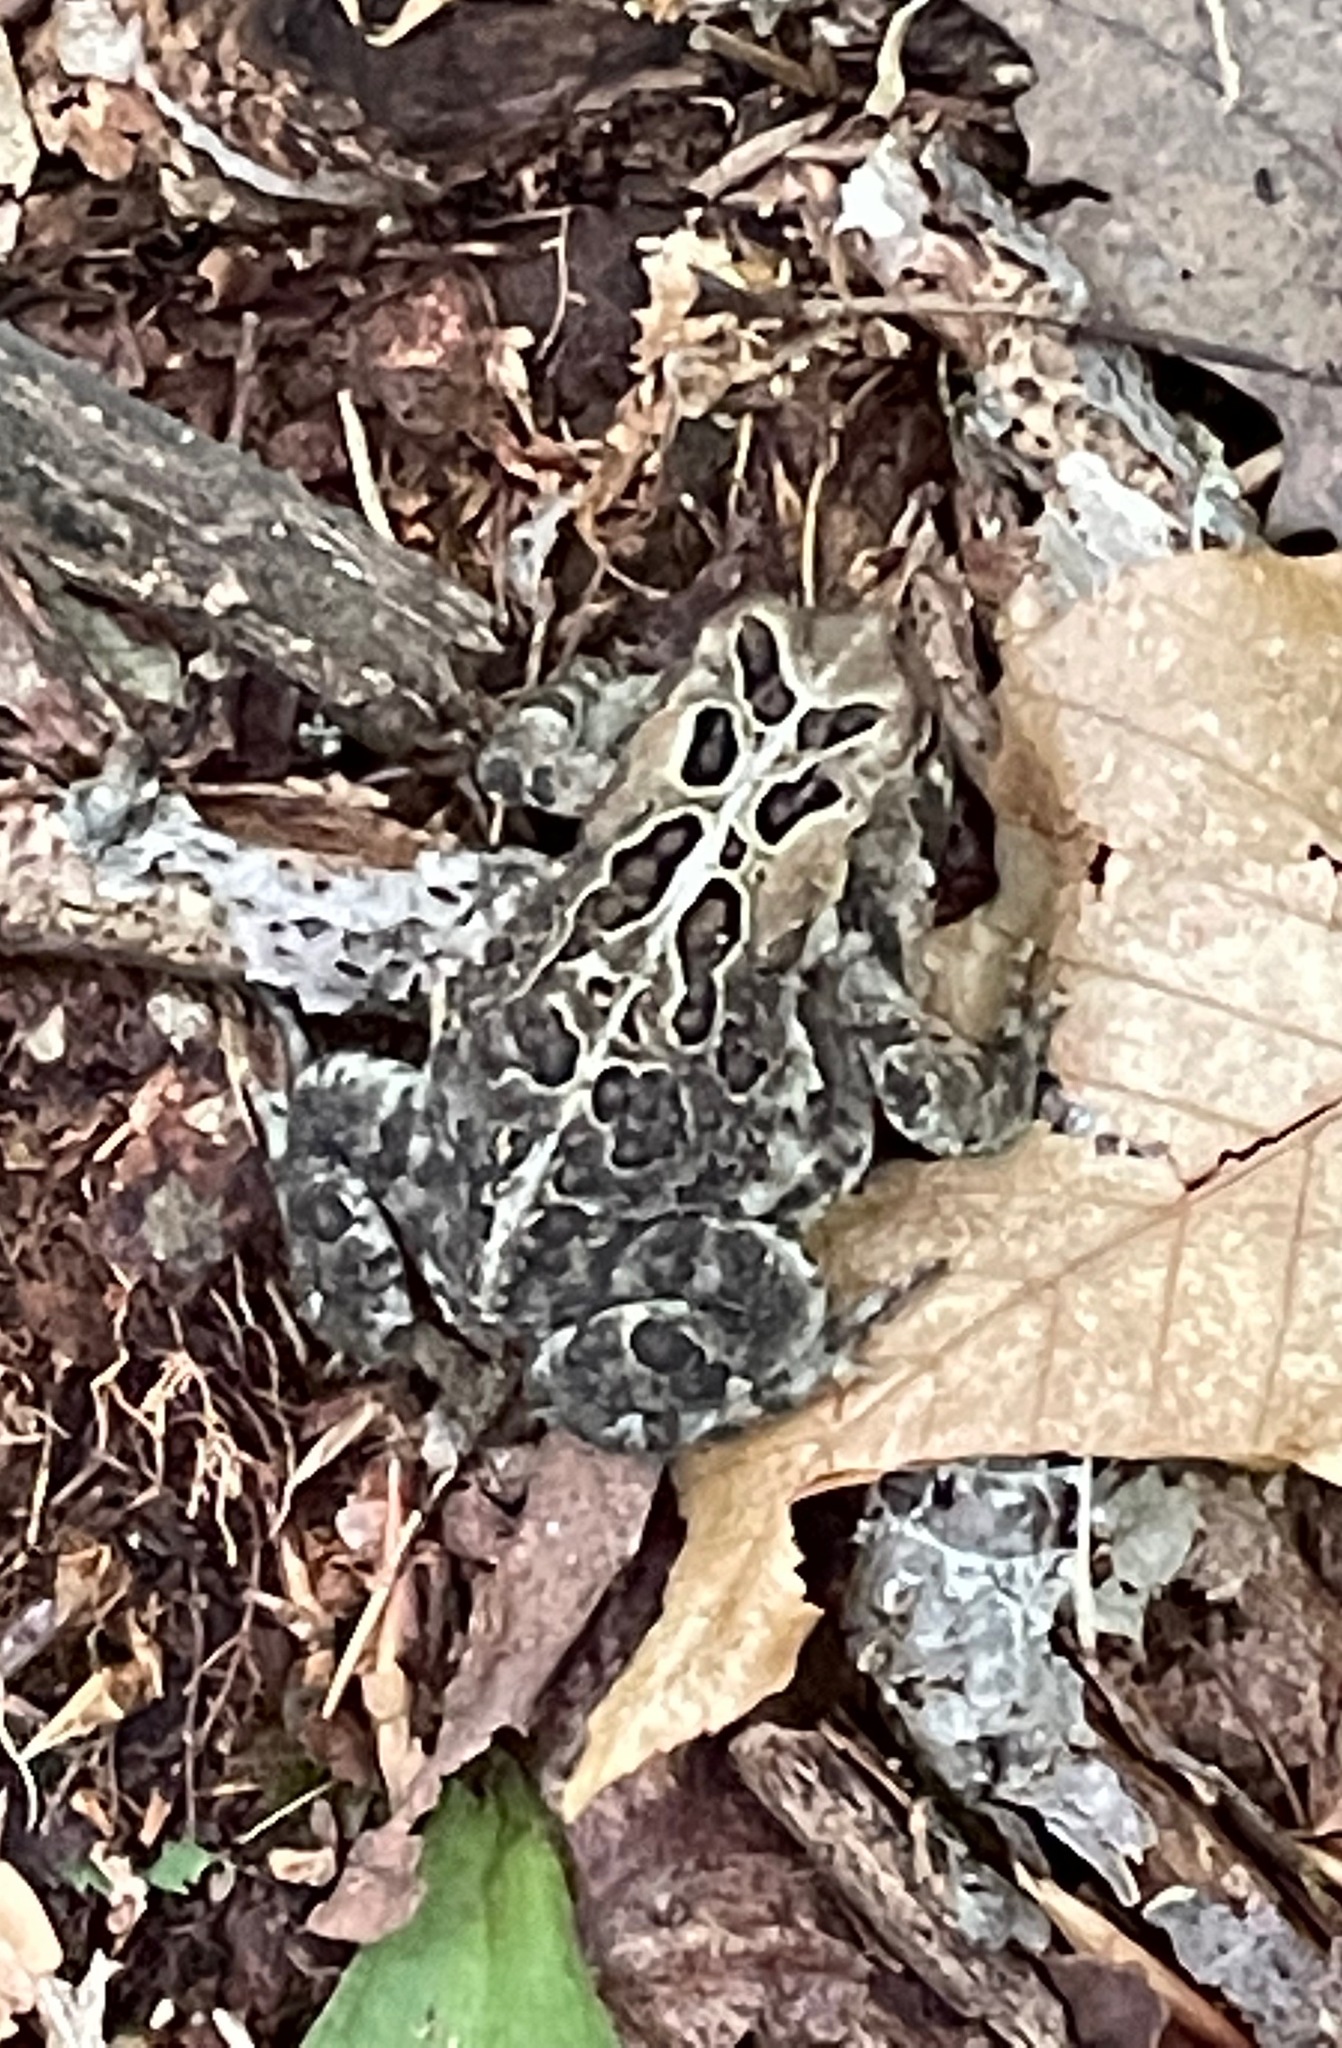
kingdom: Animalia
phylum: Chordata
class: Amphibia
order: Anura
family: Bufonidae
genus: Anaxyrus
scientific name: Anaxyrus americanus
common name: American toad
